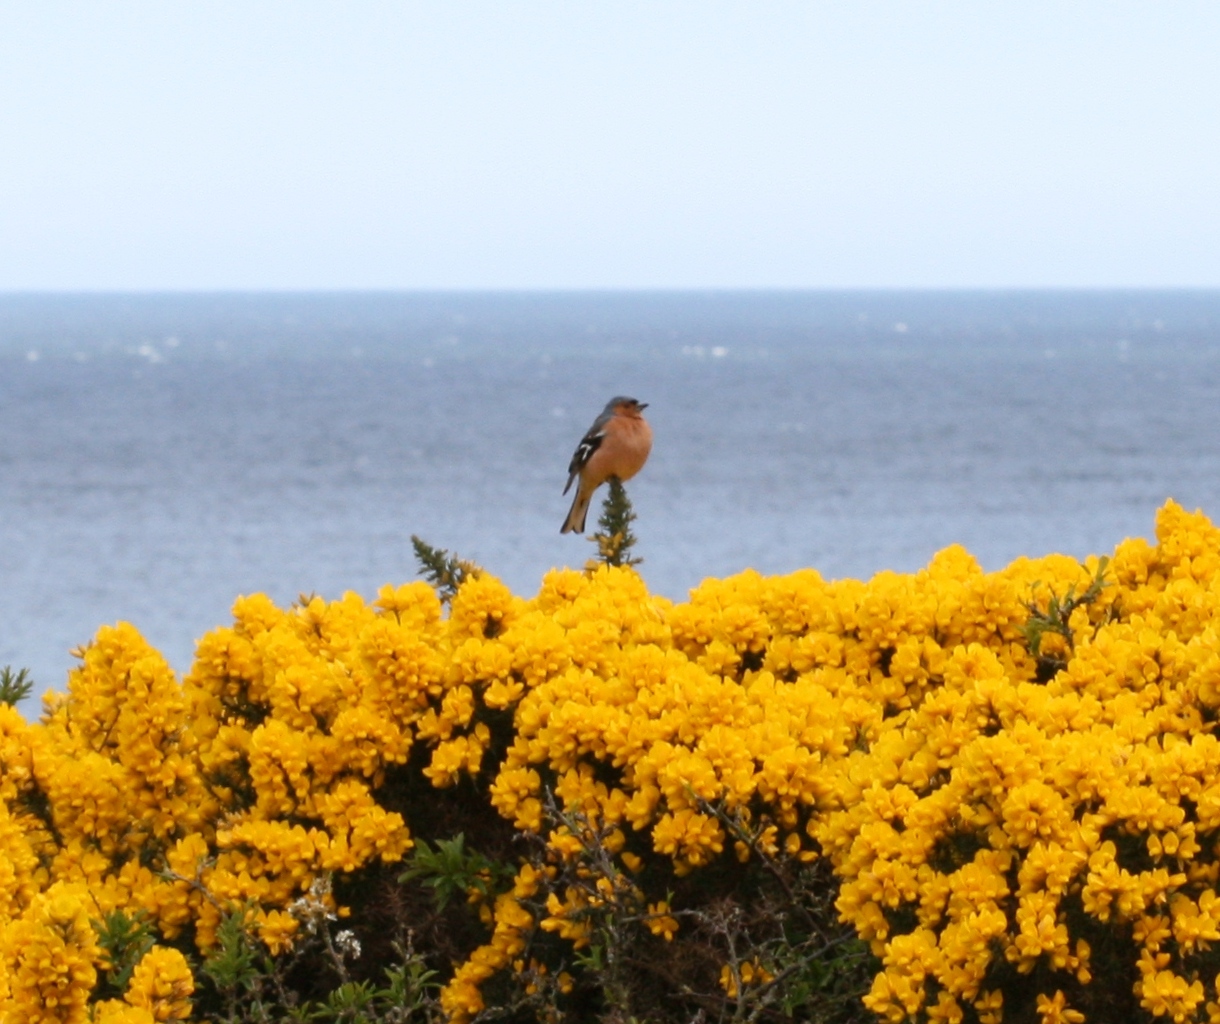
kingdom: Animalia
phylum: Chordata
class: Aves
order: Passeriformes
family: Fringillidae
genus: Fringilla
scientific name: Fringilla coelebs
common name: Common chaffinch
